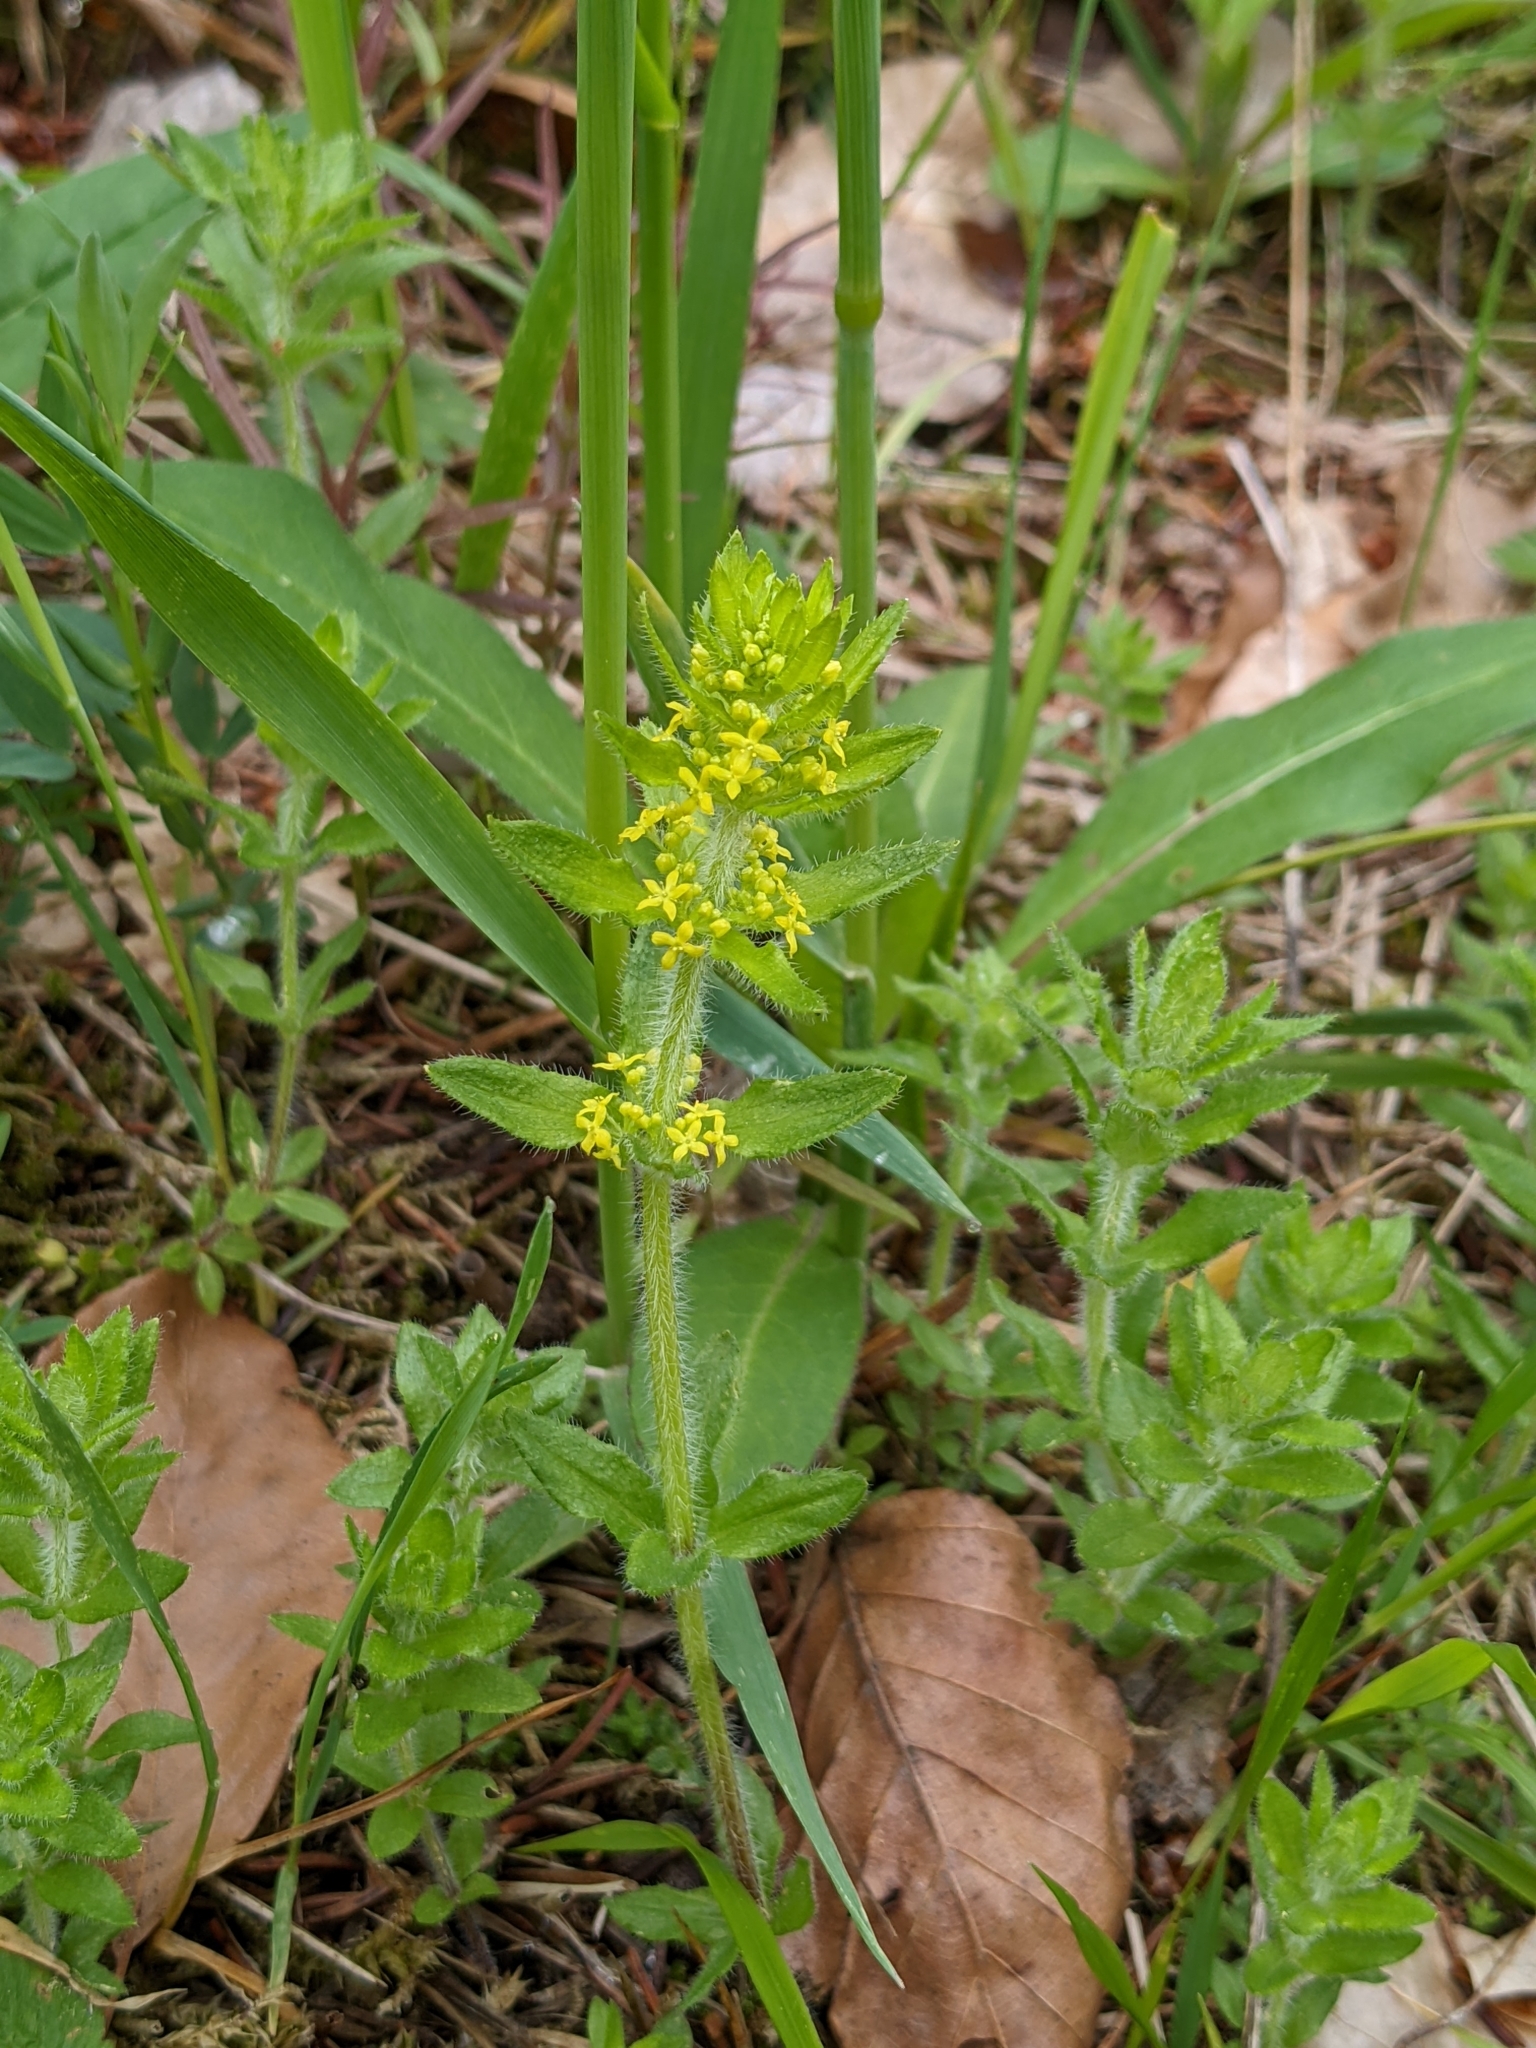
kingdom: Plantae
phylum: Tracheophyta
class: Magnoliopsida
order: Gentianales
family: Rubiaceae
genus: Cruciata
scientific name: Cruciata laevipes
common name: Crosswort
